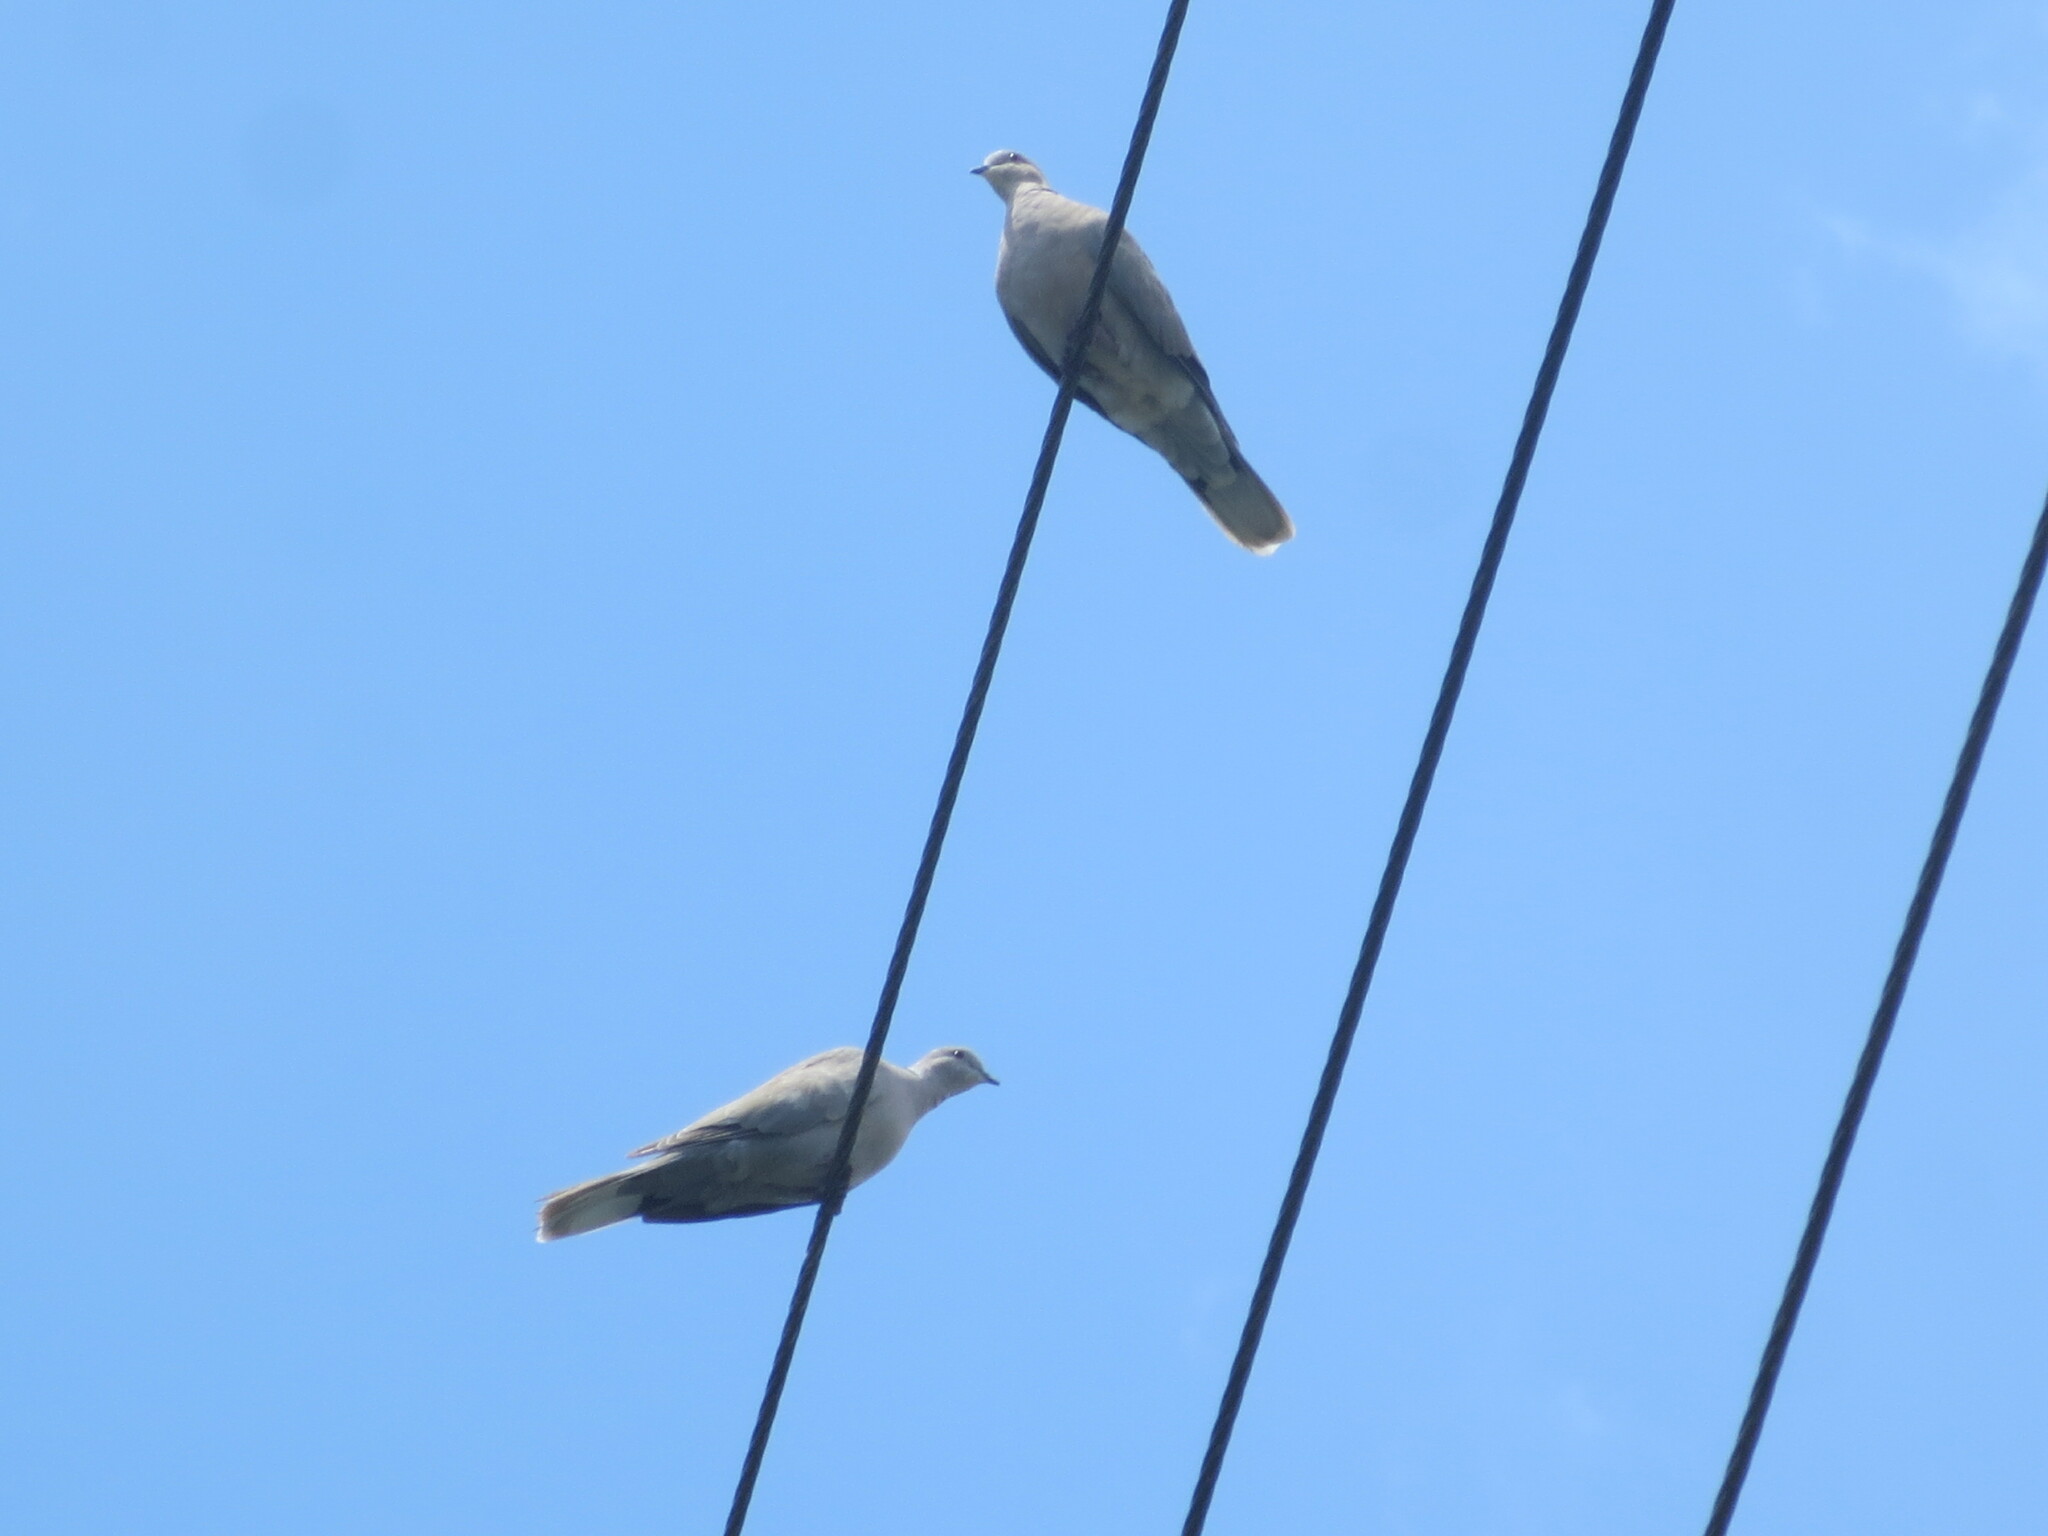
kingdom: Animalia
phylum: Chordata
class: Aves
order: Columbiformes
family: Columbidae
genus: Streptopelia
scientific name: Streptopelia decaocto
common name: Eurasian collared dove
